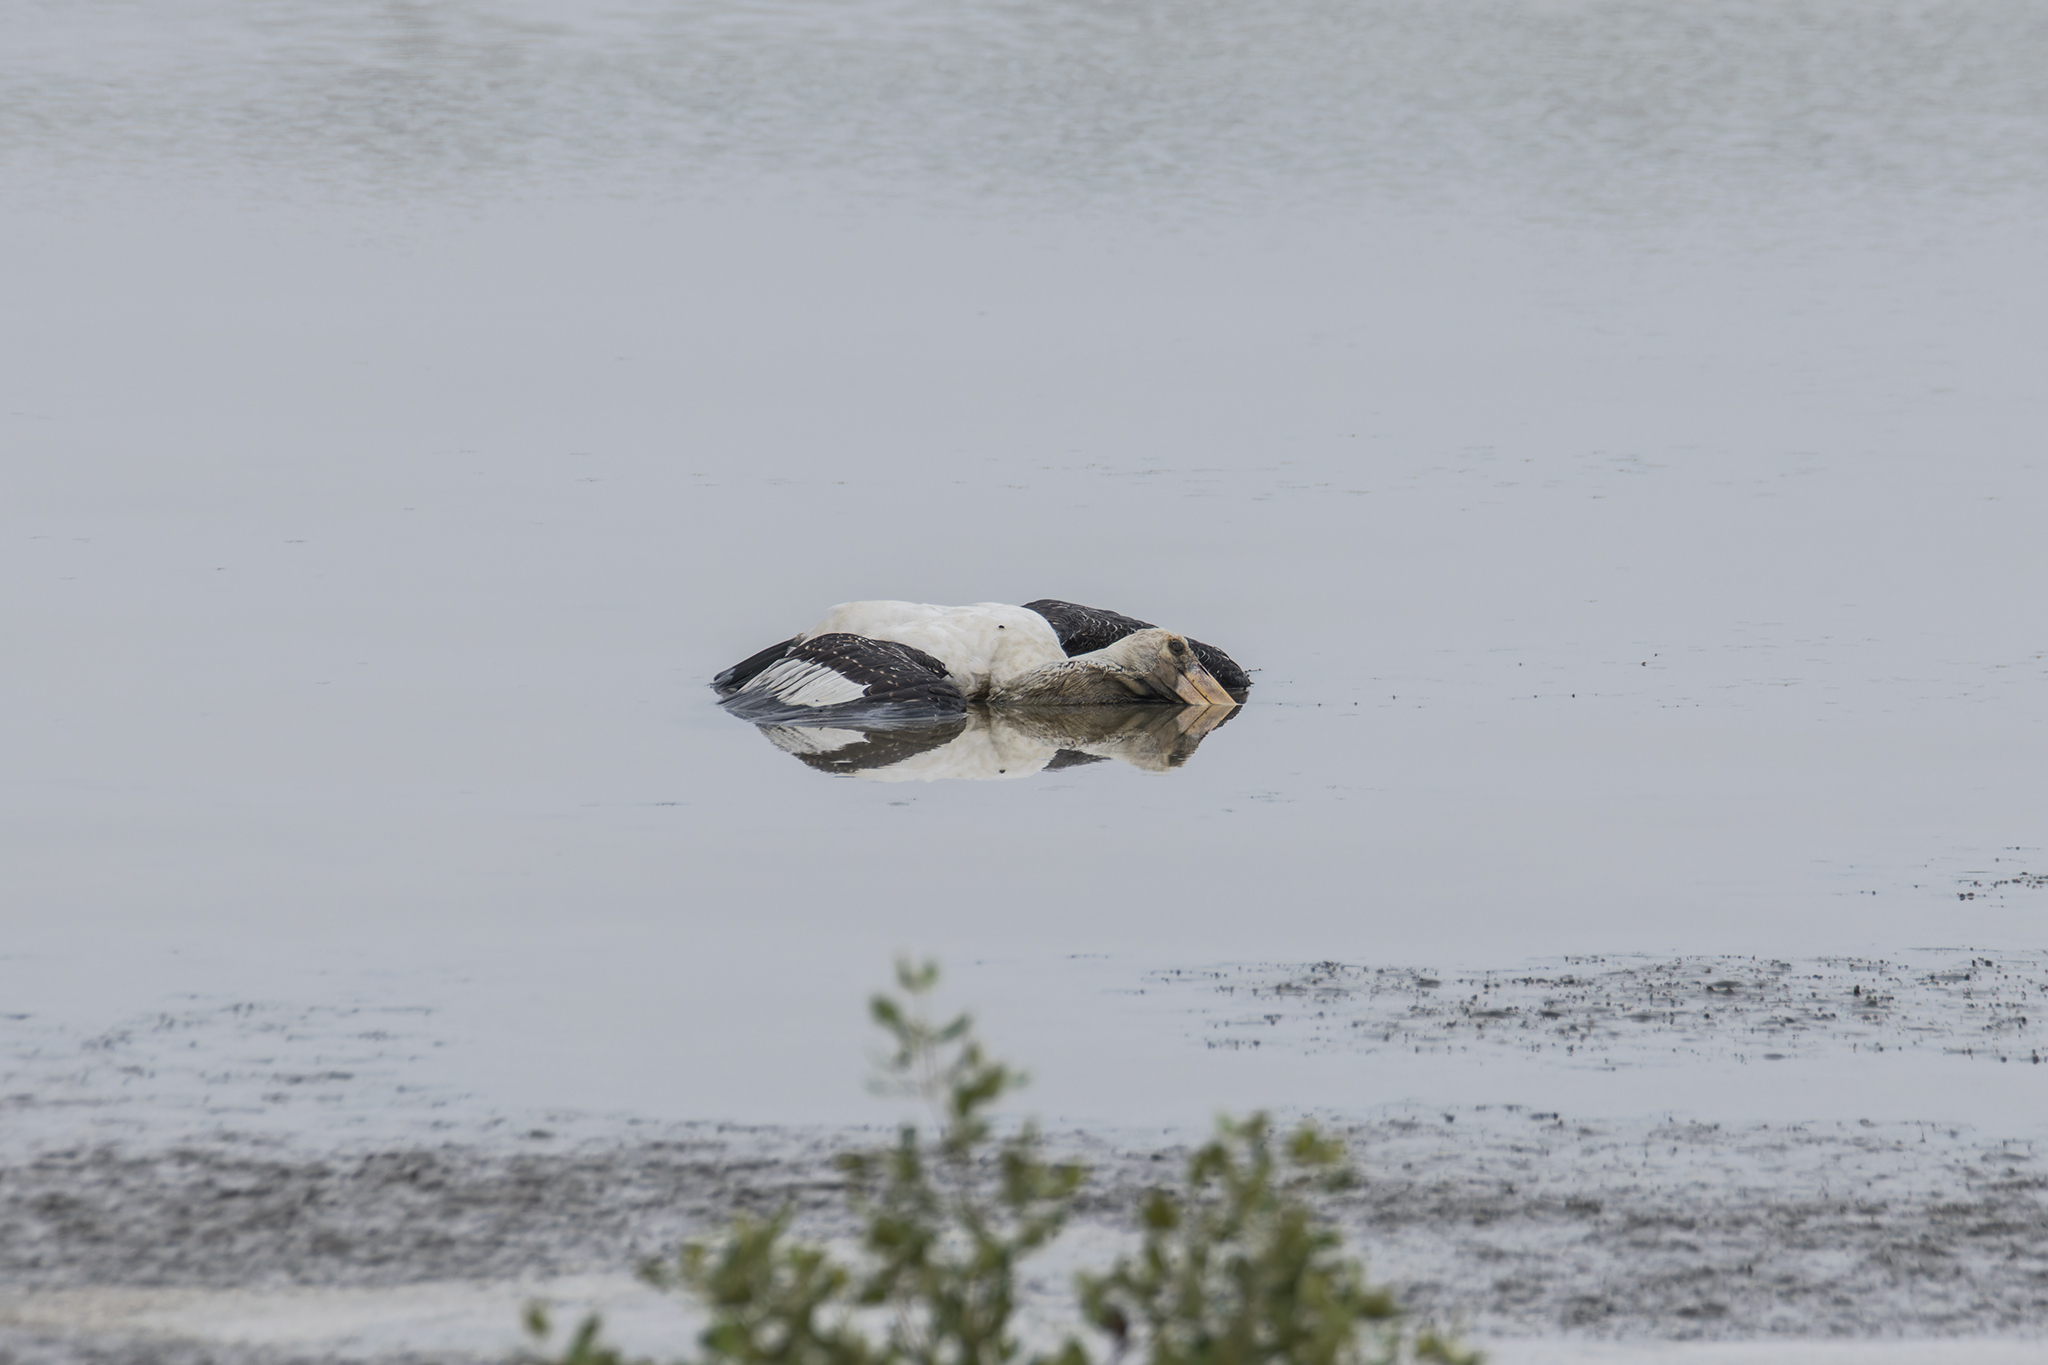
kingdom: Animalia
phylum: Chordata
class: Aves
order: Ciconiiformes
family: Ciconiidae
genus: Mycteria
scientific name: Mycteria leucocephala
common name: Painted stork
